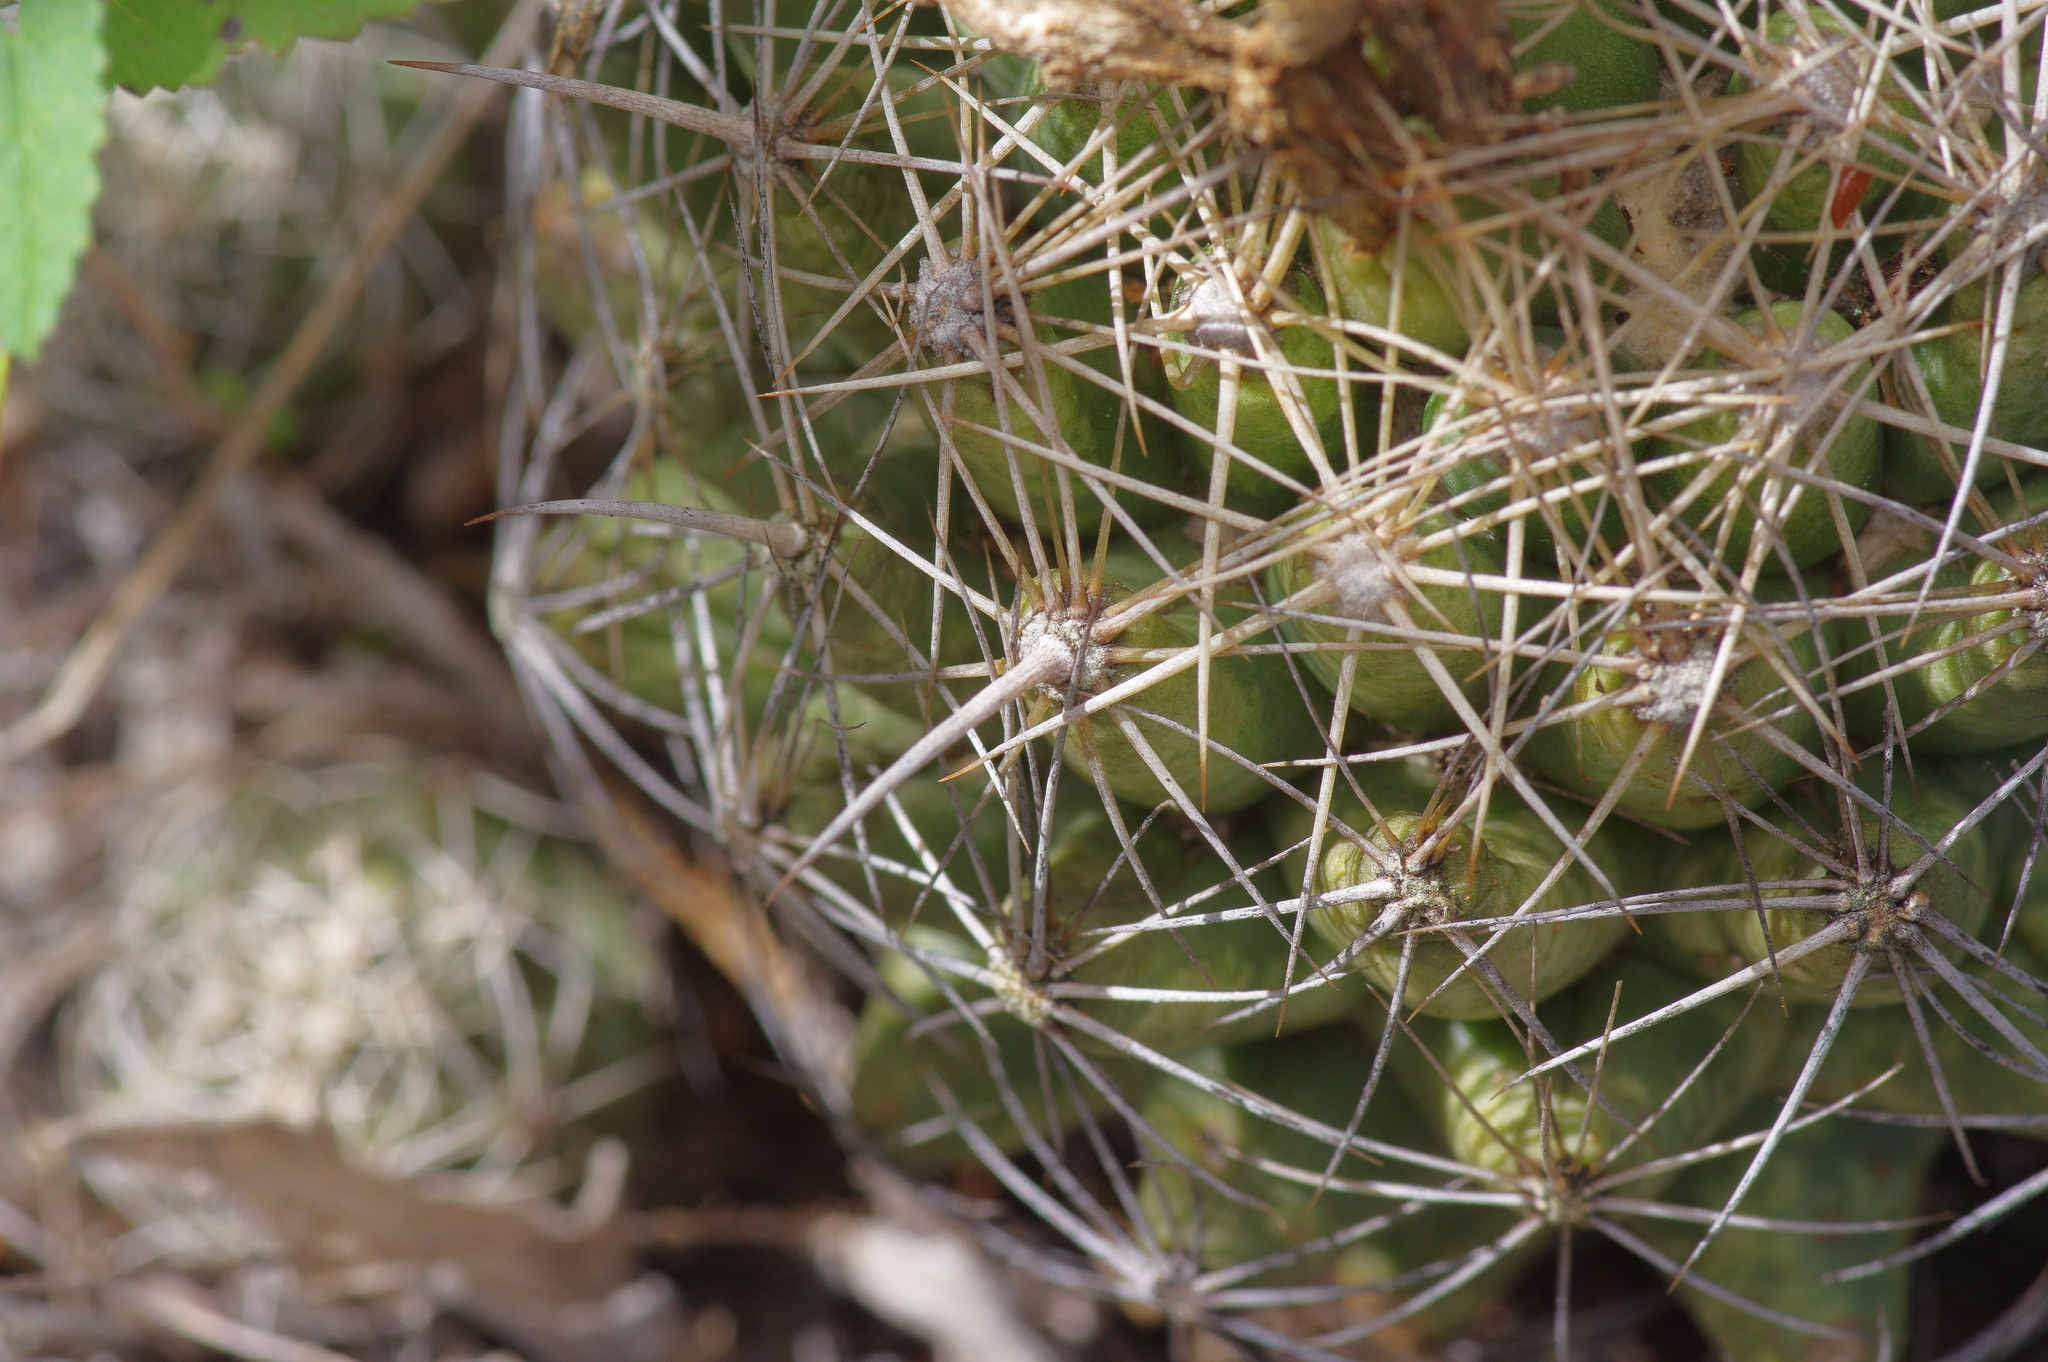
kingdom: Plantae
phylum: Tracheophyta
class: Magnoliopsida
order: Caryophyllales
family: Cactaceae
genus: Coryphantha
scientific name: Coryphantha sulcata
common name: Finger cactus
